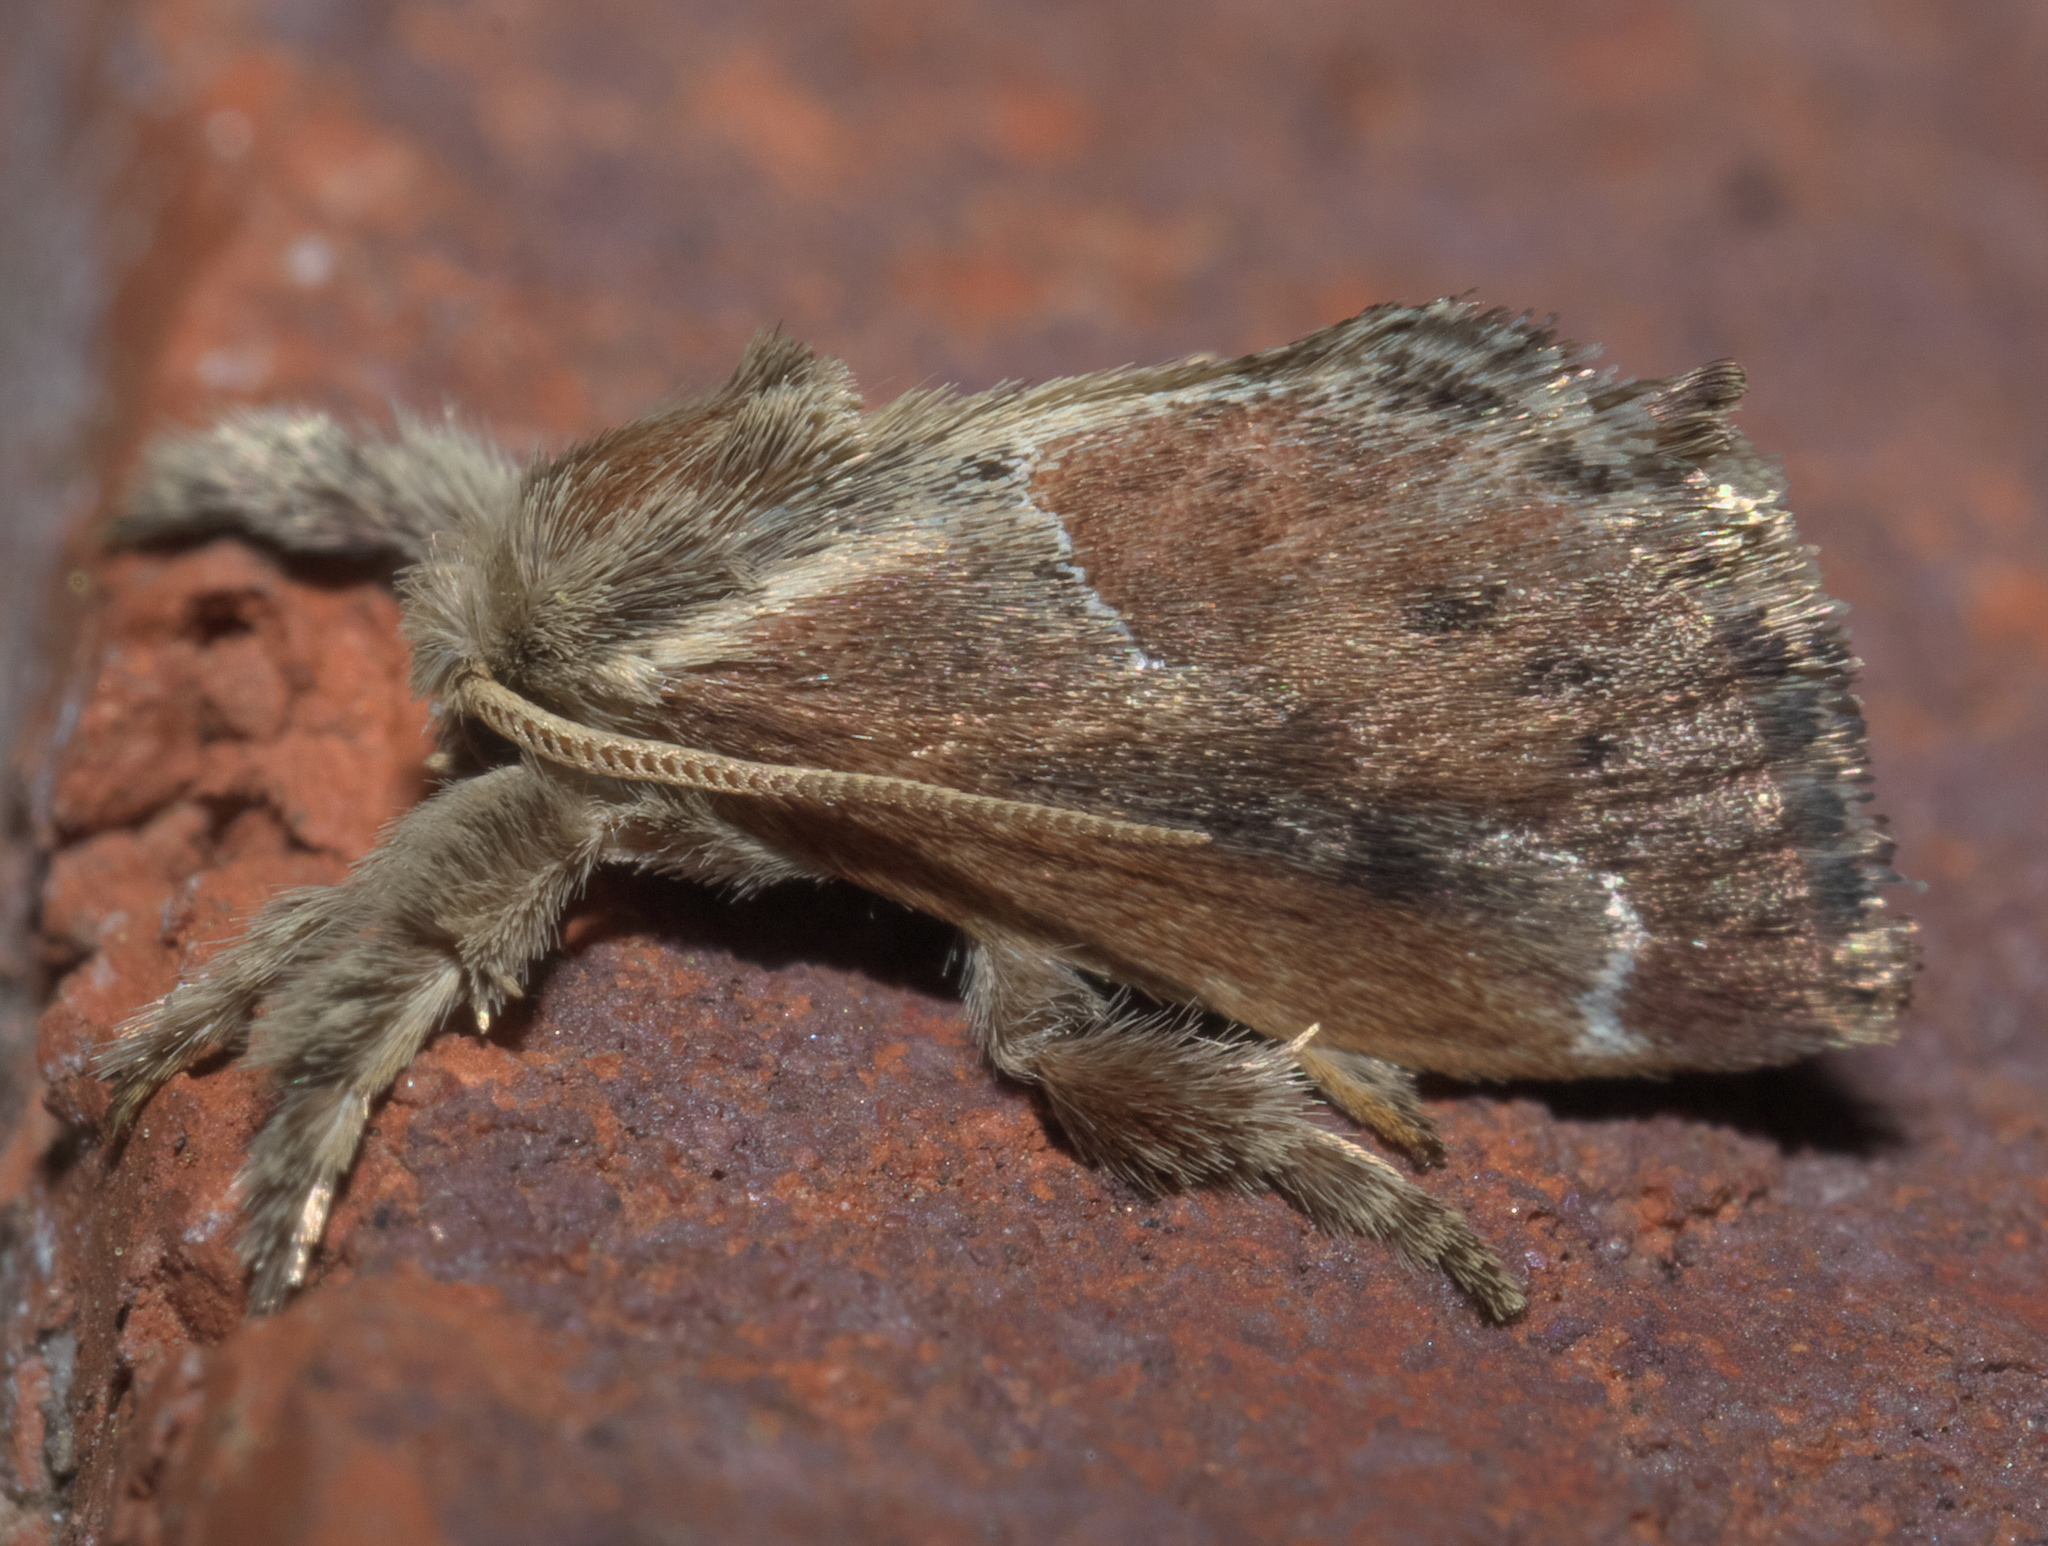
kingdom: Animalia
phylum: Arthropoda
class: Insecta
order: Lepidoptera
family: Limacodidae
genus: Adoneta
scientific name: Adoneta spinuloides
